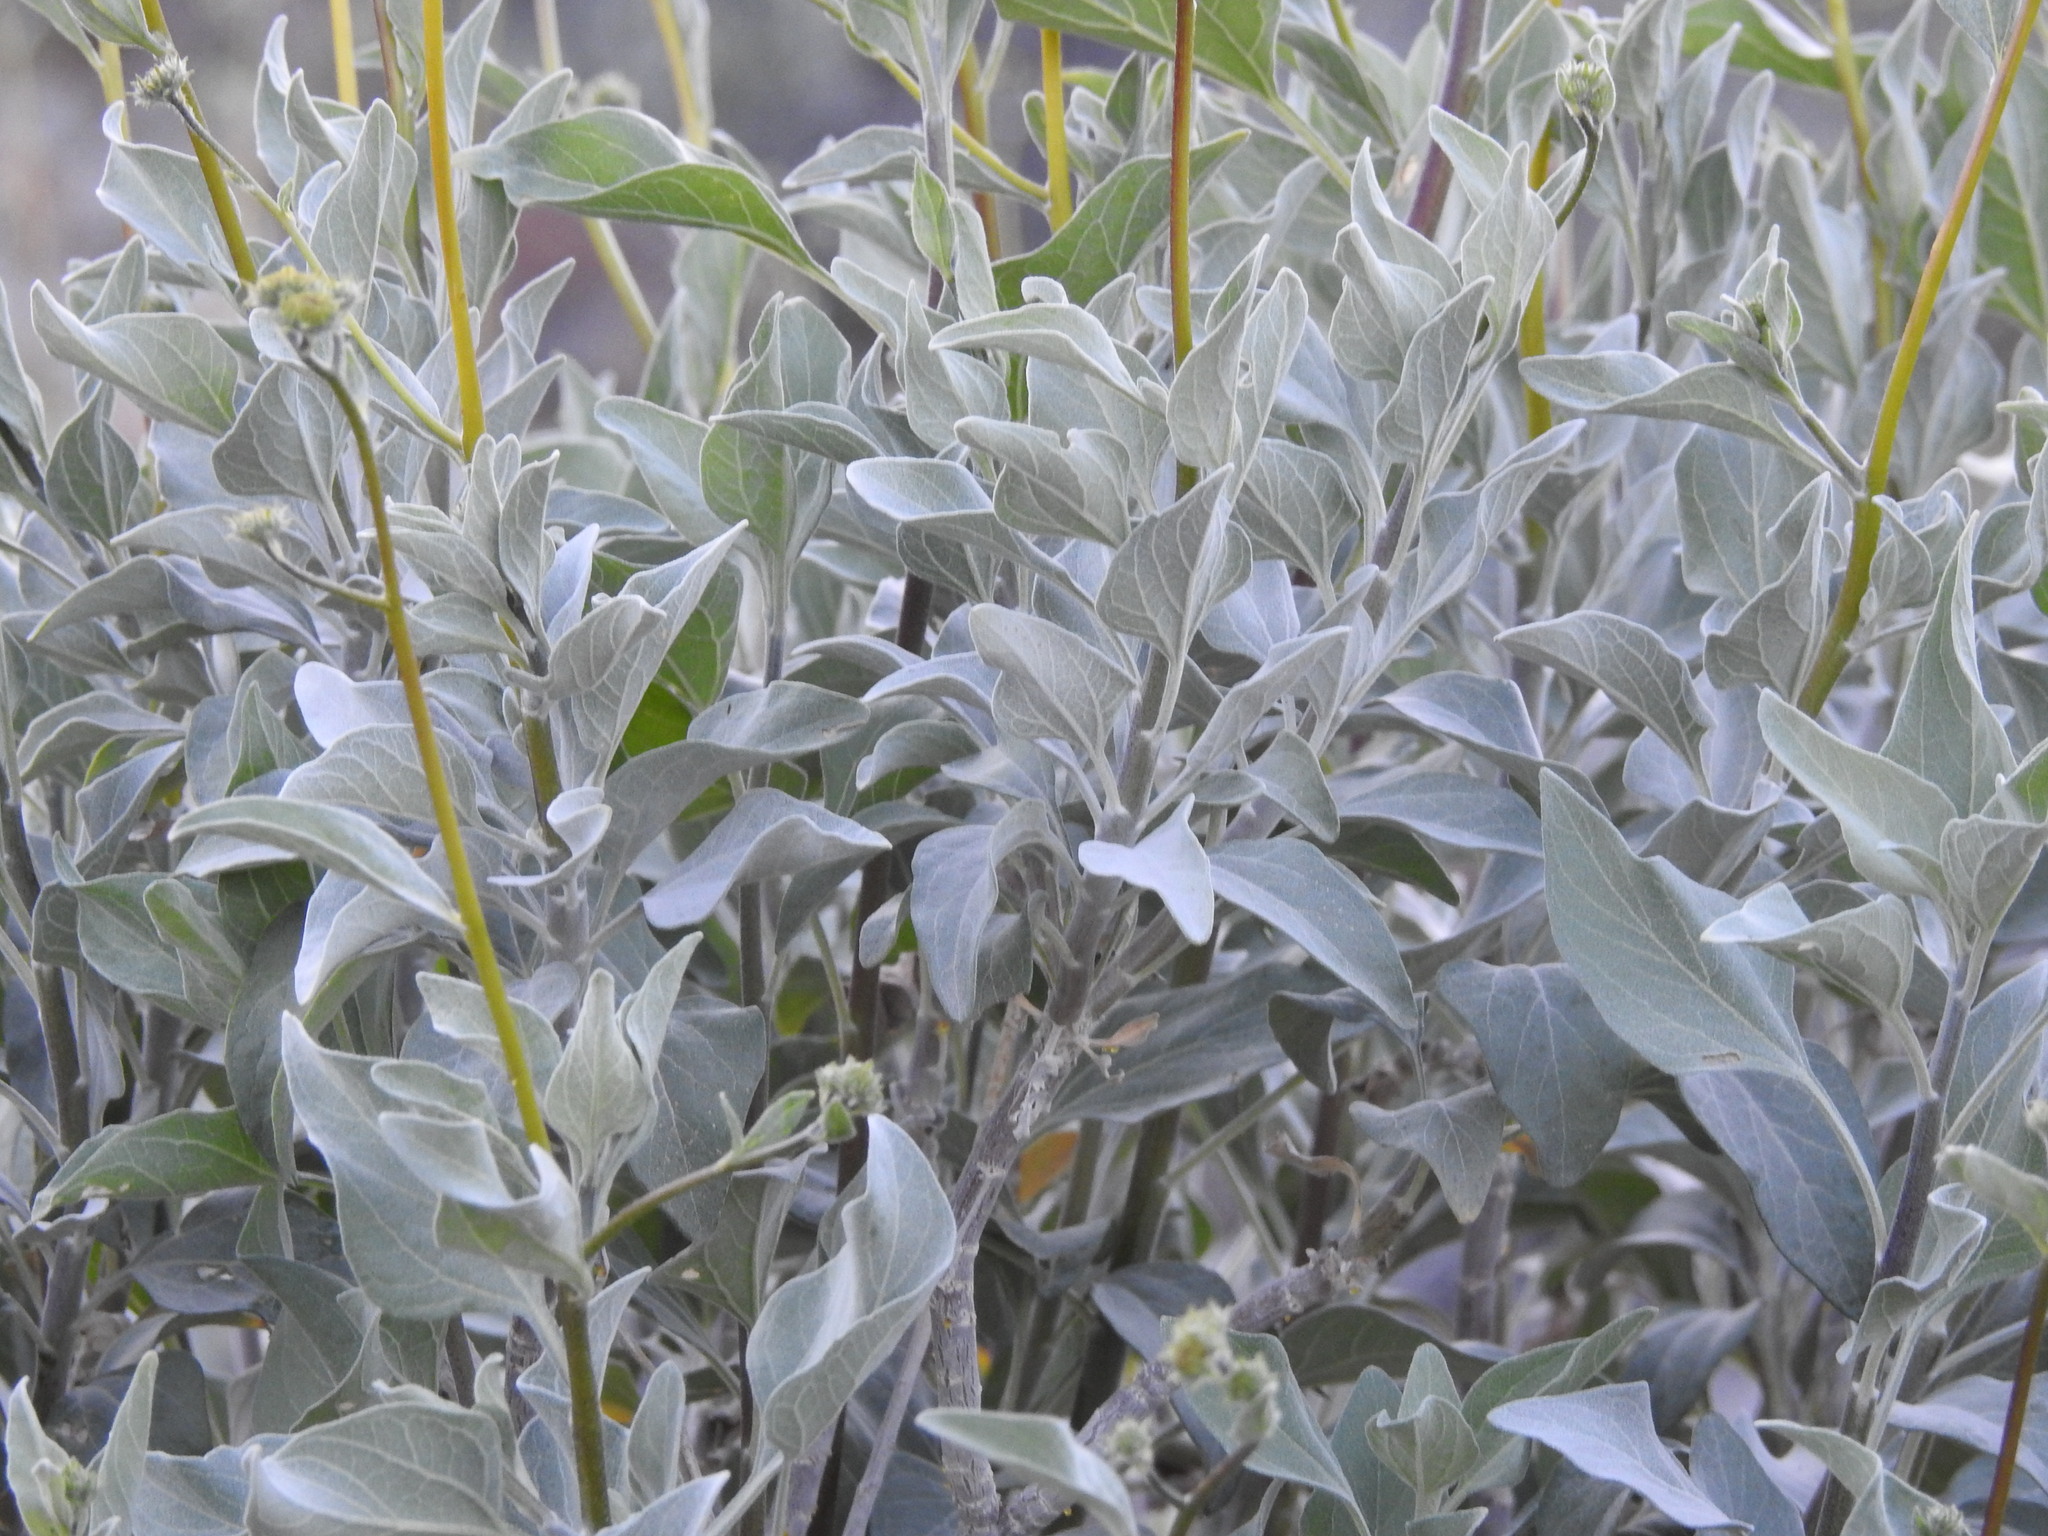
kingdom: Plantae
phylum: Tracheophyta
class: Magnoliopsida
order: Asterales
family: Asteraceae
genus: Encelia
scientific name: Encelia farinosa
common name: Brittlebush
